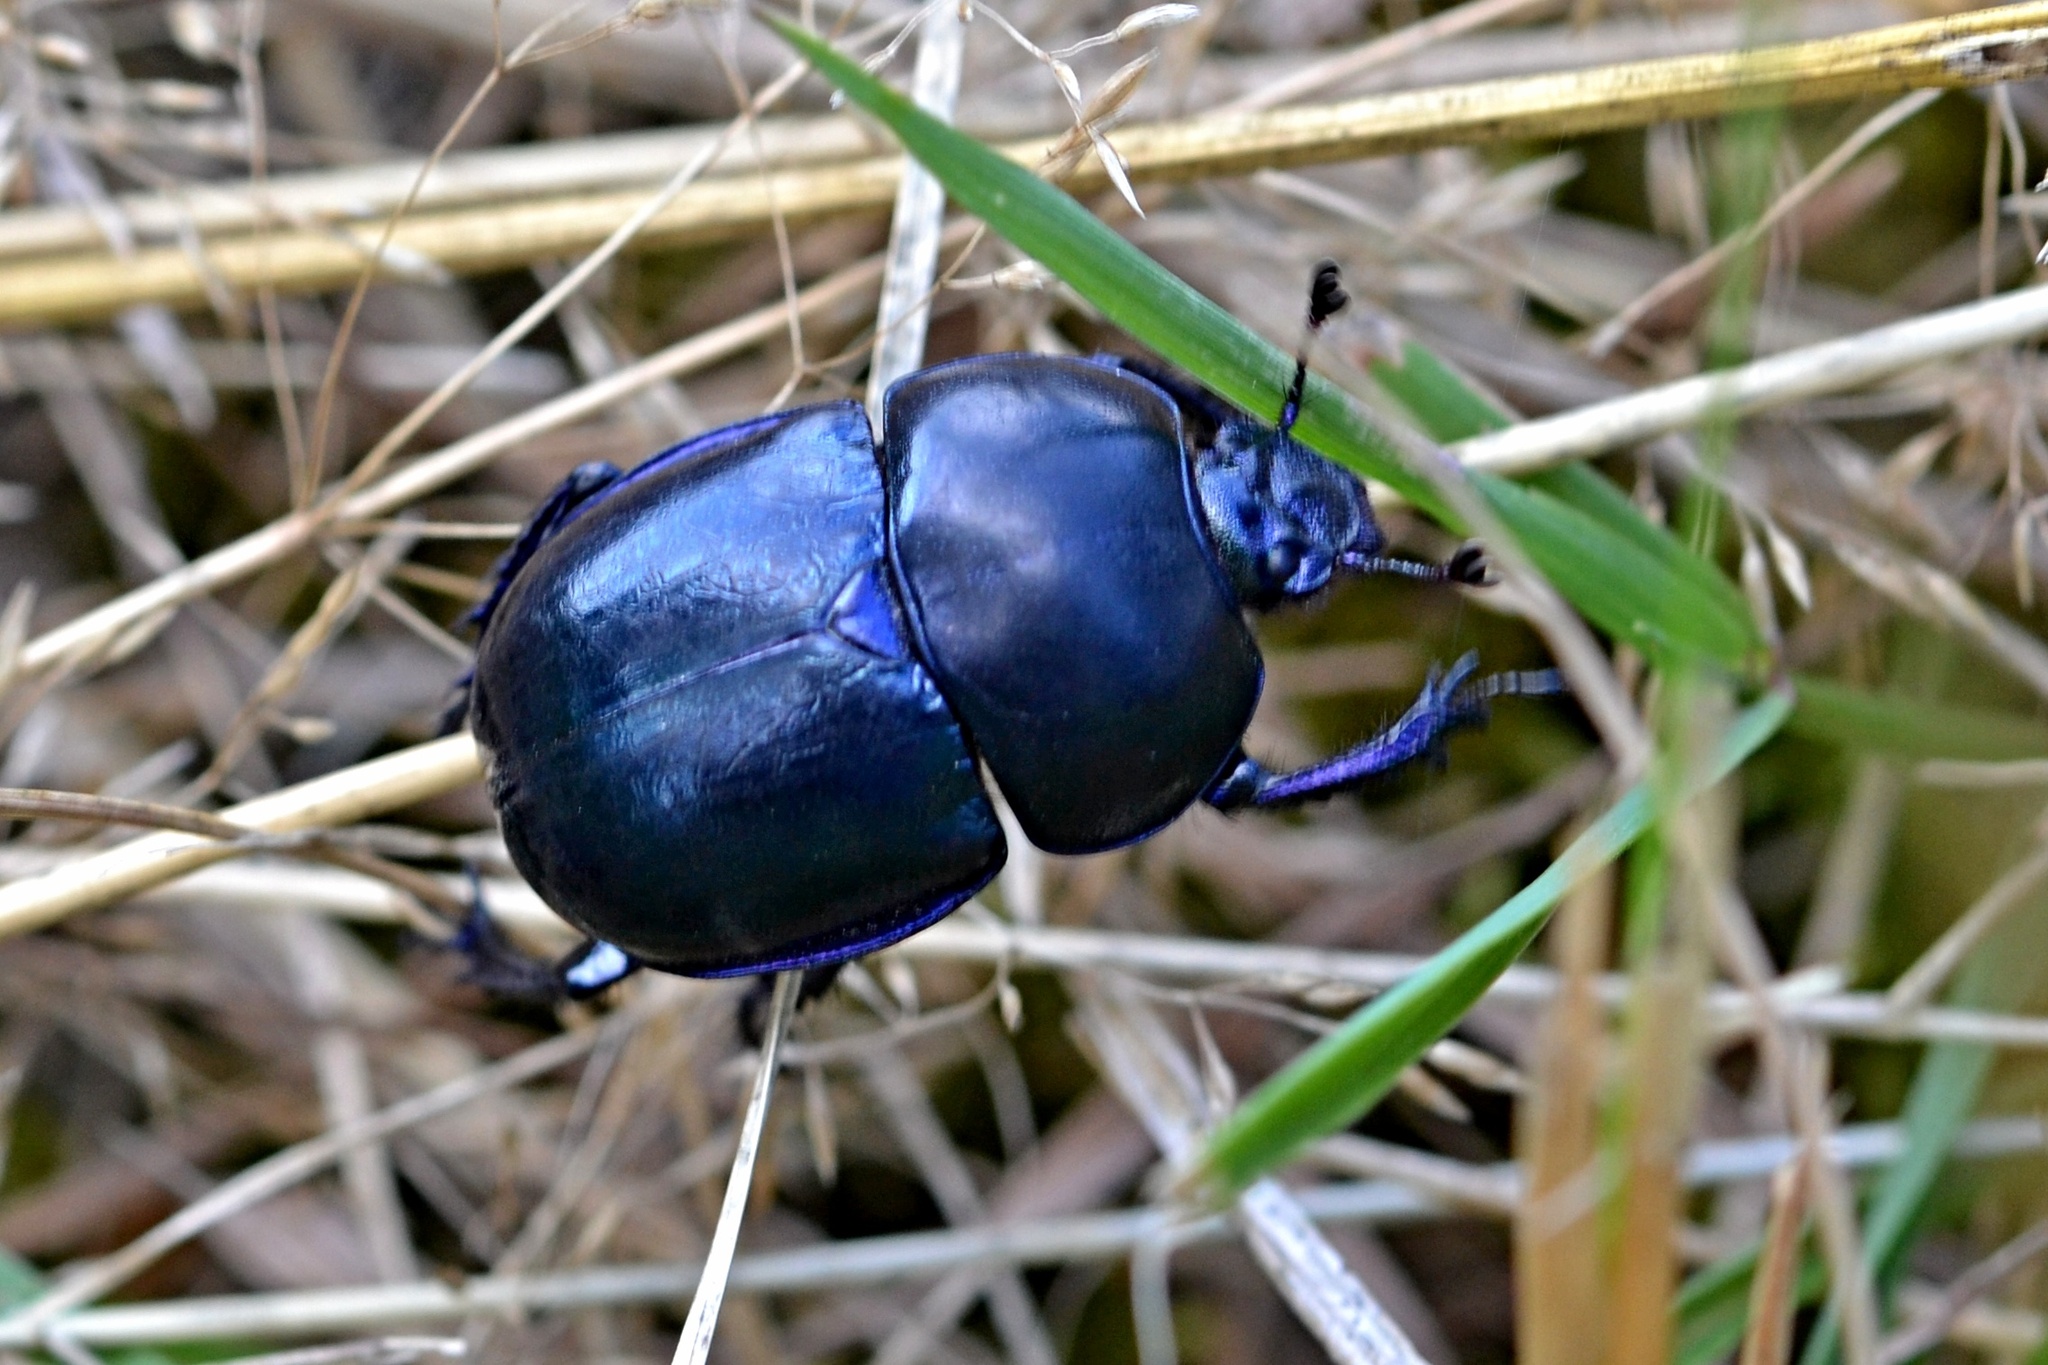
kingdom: Animalia
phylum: Arthropoda
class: Insecta
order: Coleoptera
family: Geotrupidae
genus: Trypocopris
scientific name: Trypocopris vernalis
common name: Spring dumbledor
